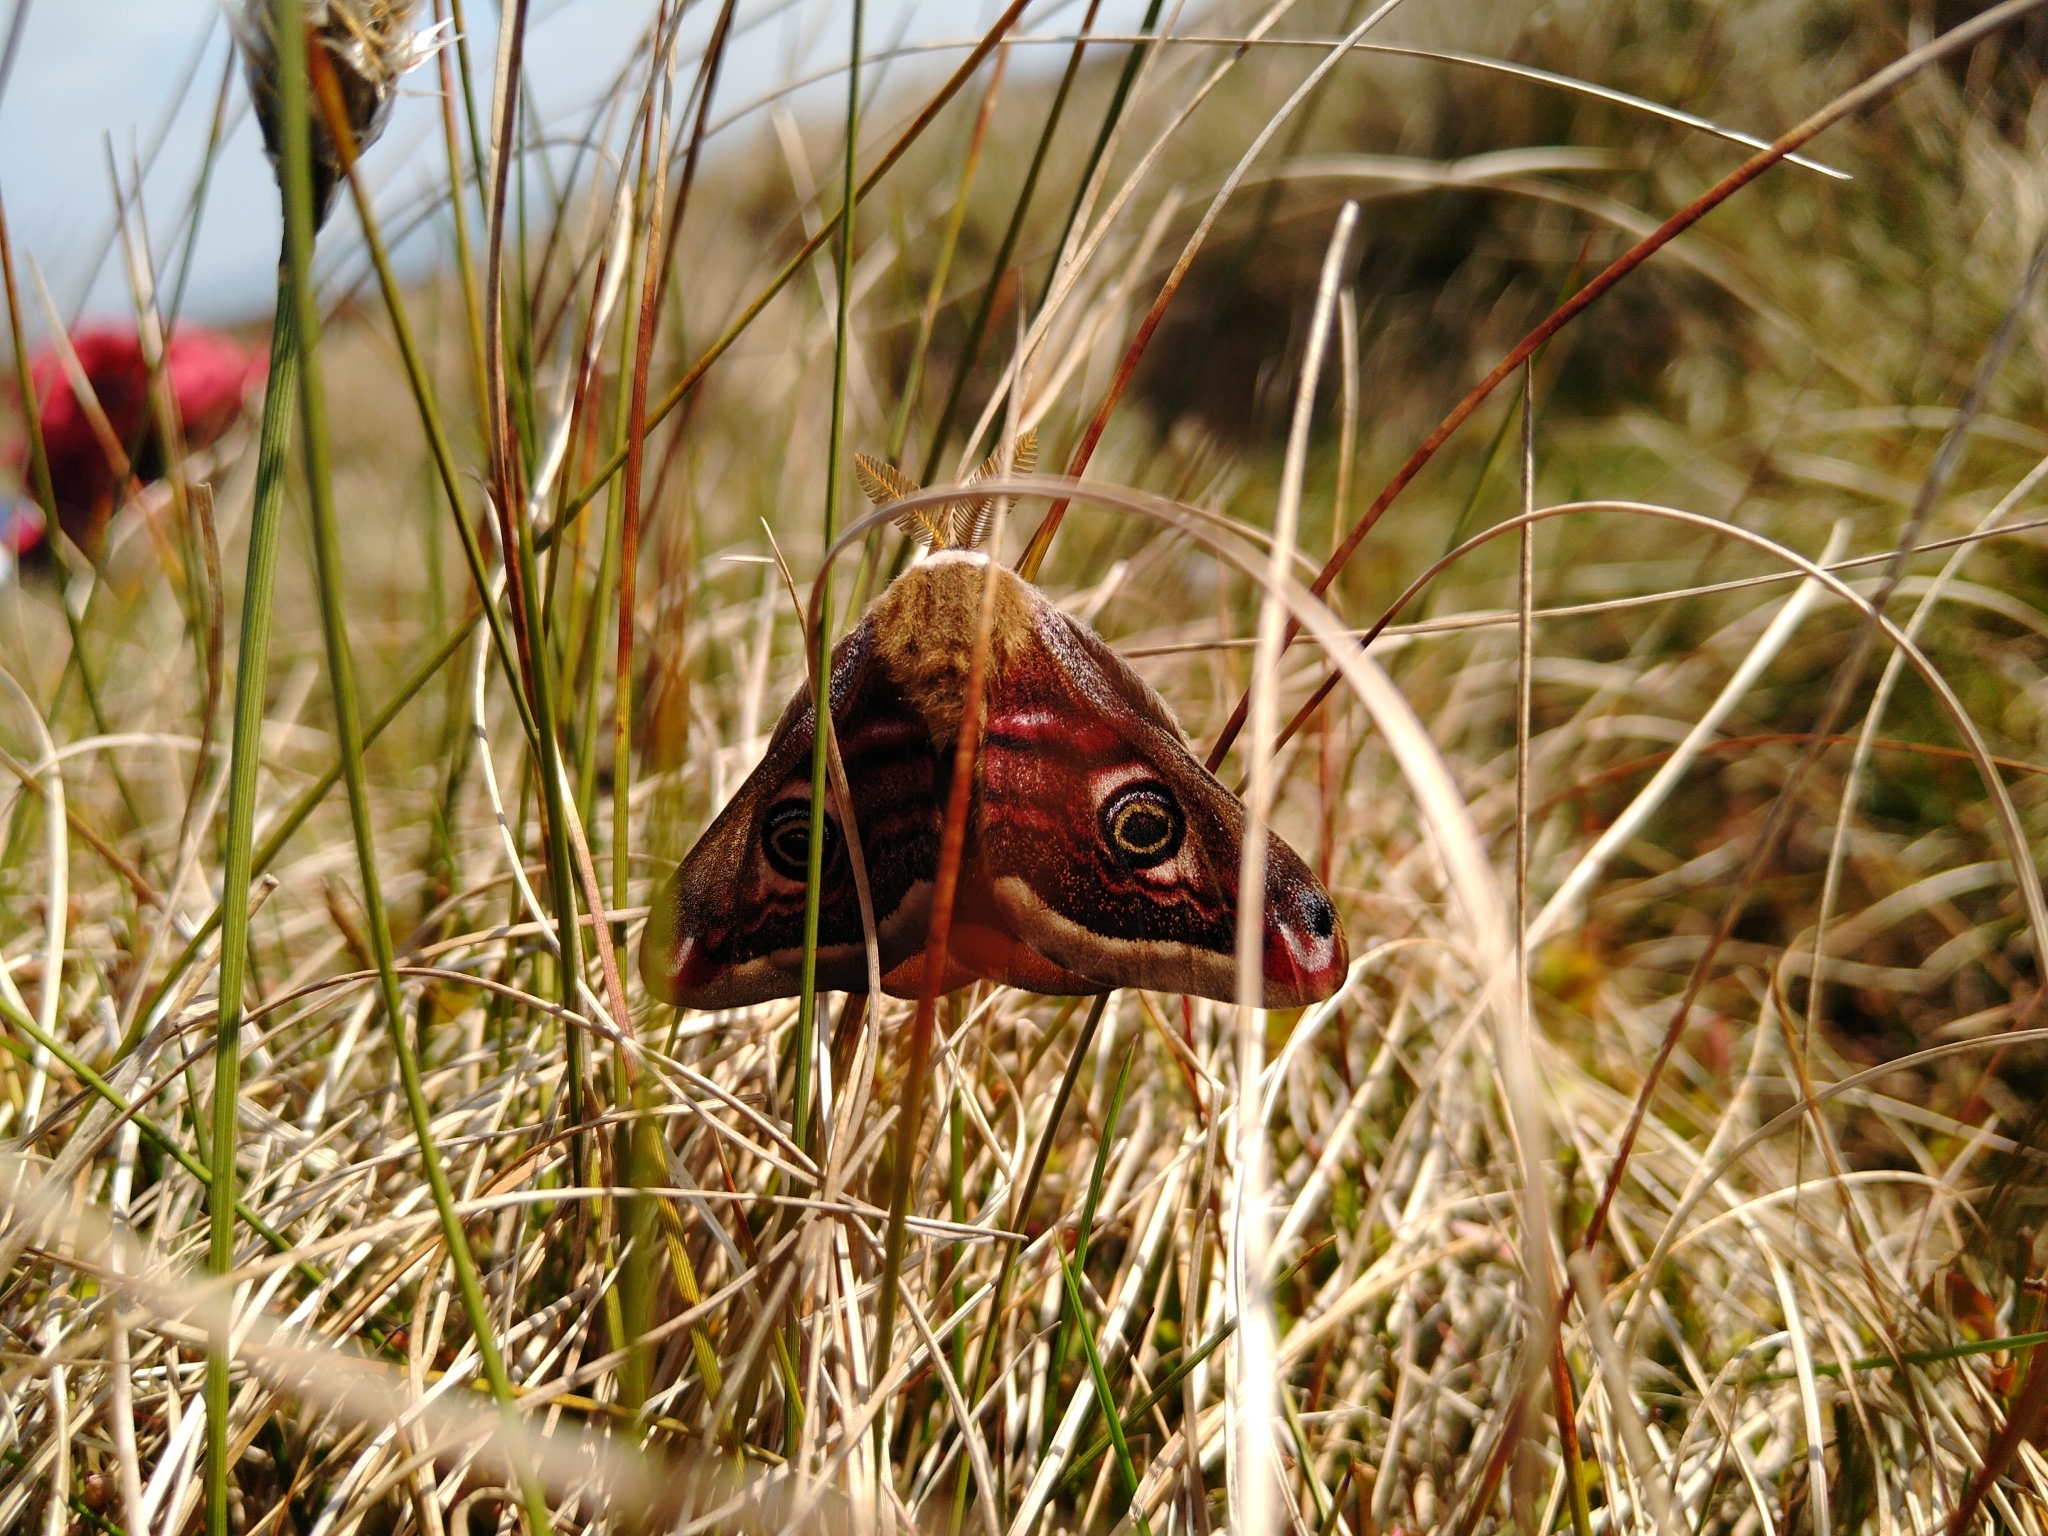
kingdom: Animalia
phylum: Arthropoda
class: Insecta
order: Lepidoptera
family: Saturniidae
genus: Saturnia
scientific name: Saturnia pavonia
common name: Emperor moth
